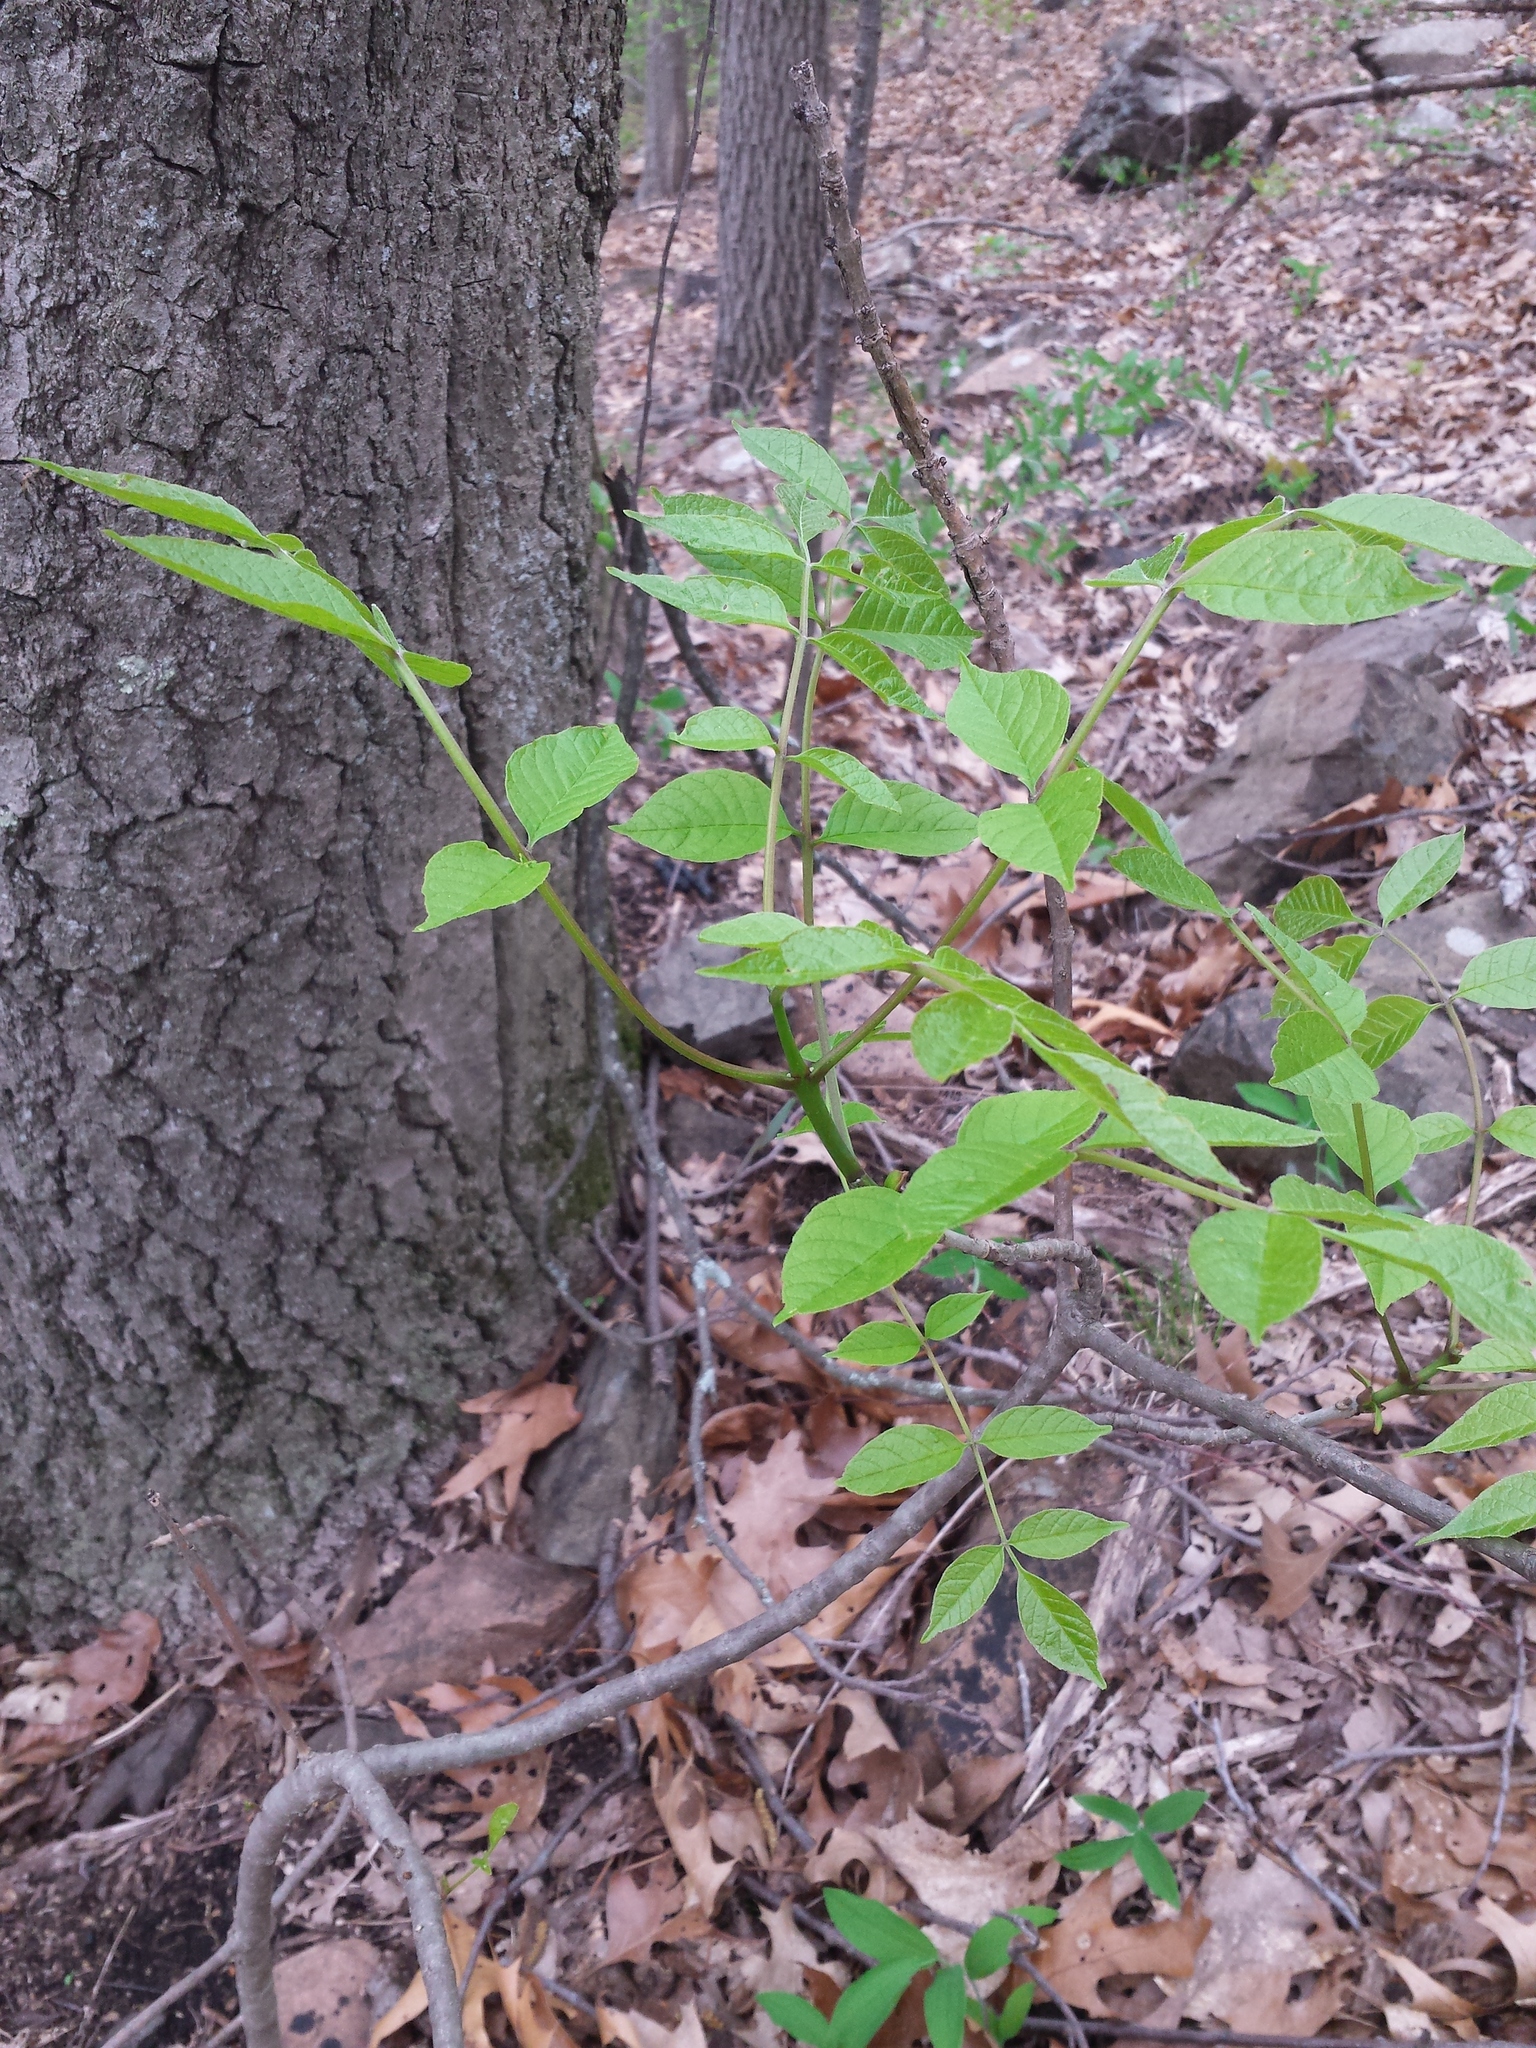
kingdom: Plantae
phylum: Tracheophyta
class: Magnoliopsida
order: Lamiales
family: Oleaceae
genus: Fraxinus
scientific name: Fraxinus pennsylvanica
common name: Green ash
